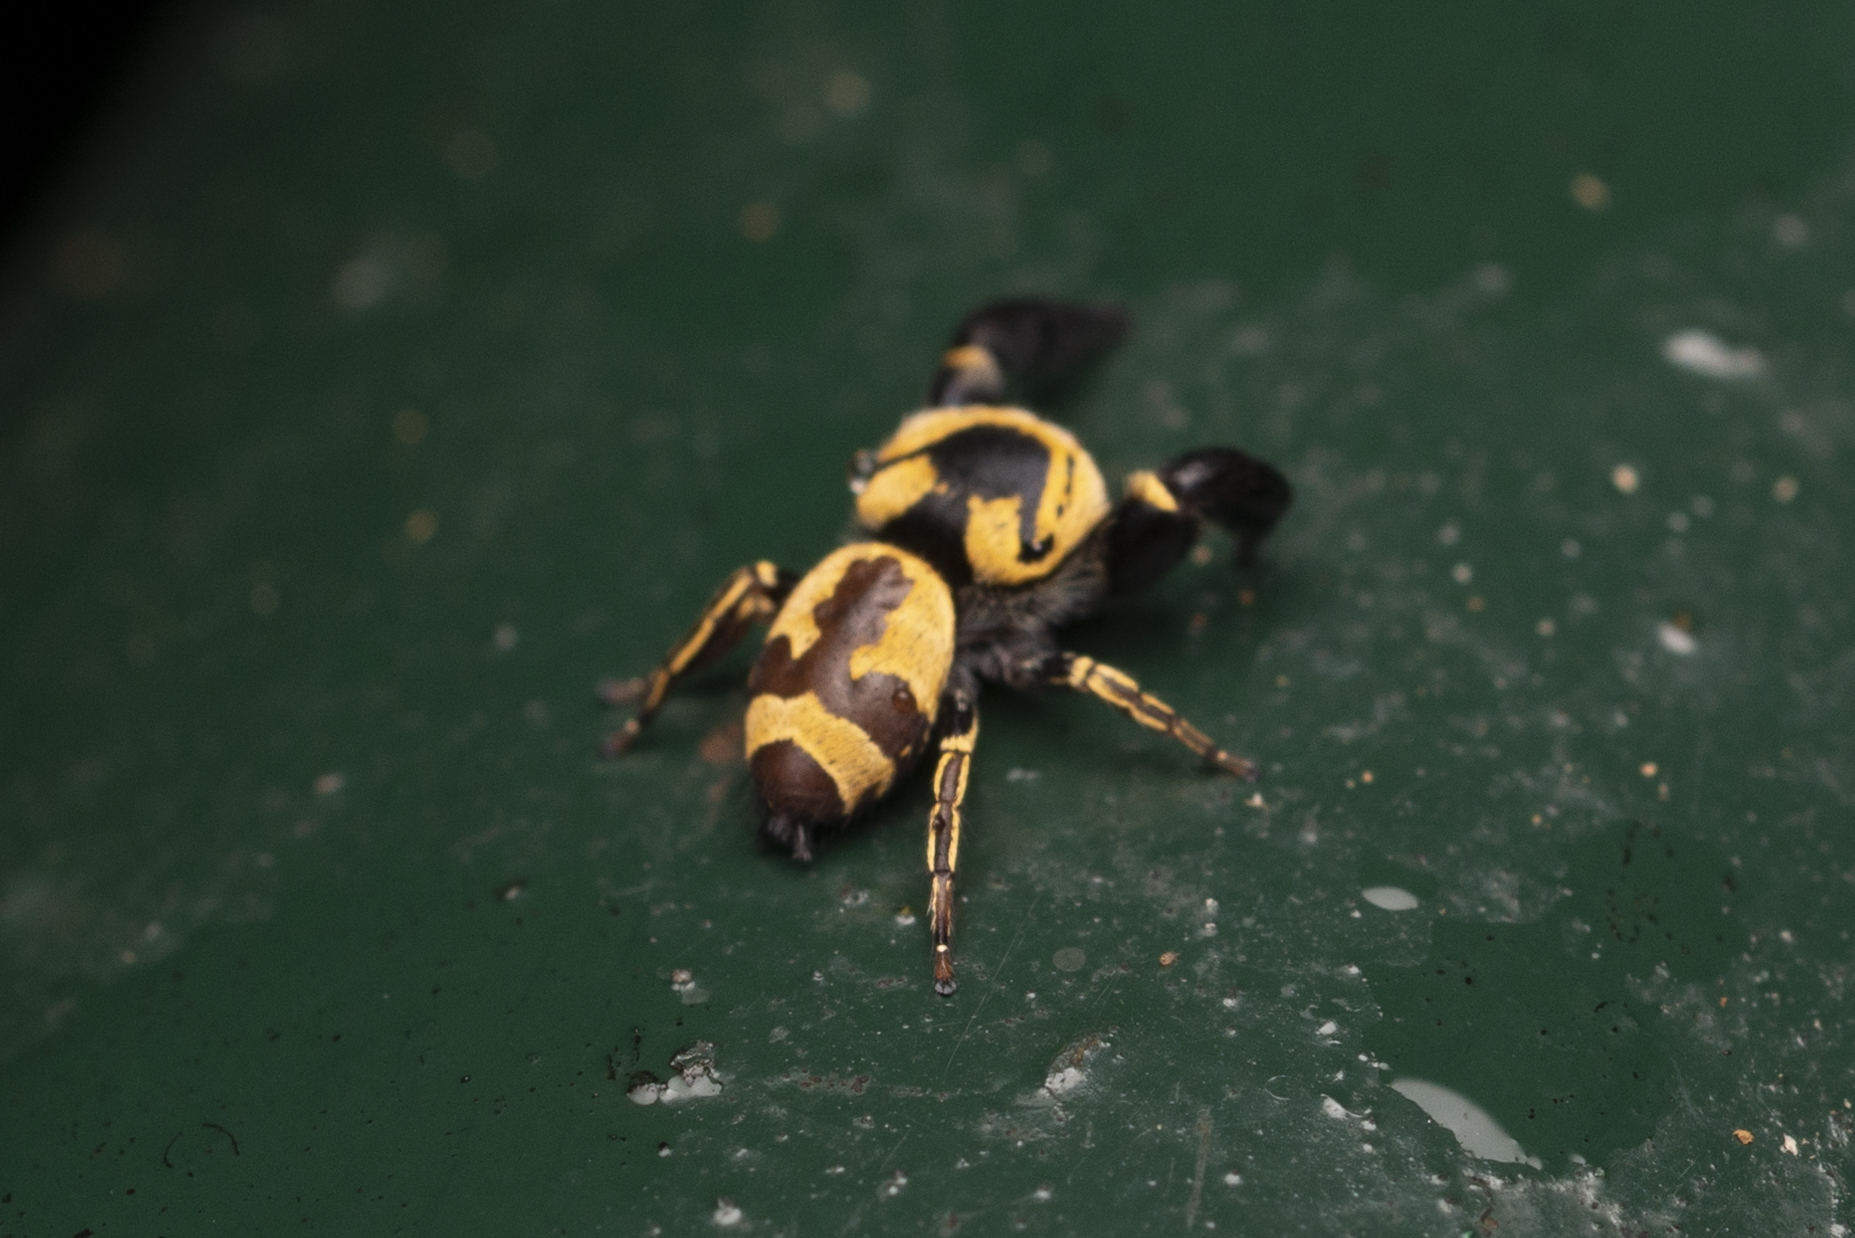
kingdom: Animalia
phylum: Arthropoda
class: Arachnida
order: Araneae
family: Salticidae
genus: Rhene
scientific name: Rhene flavicomans
